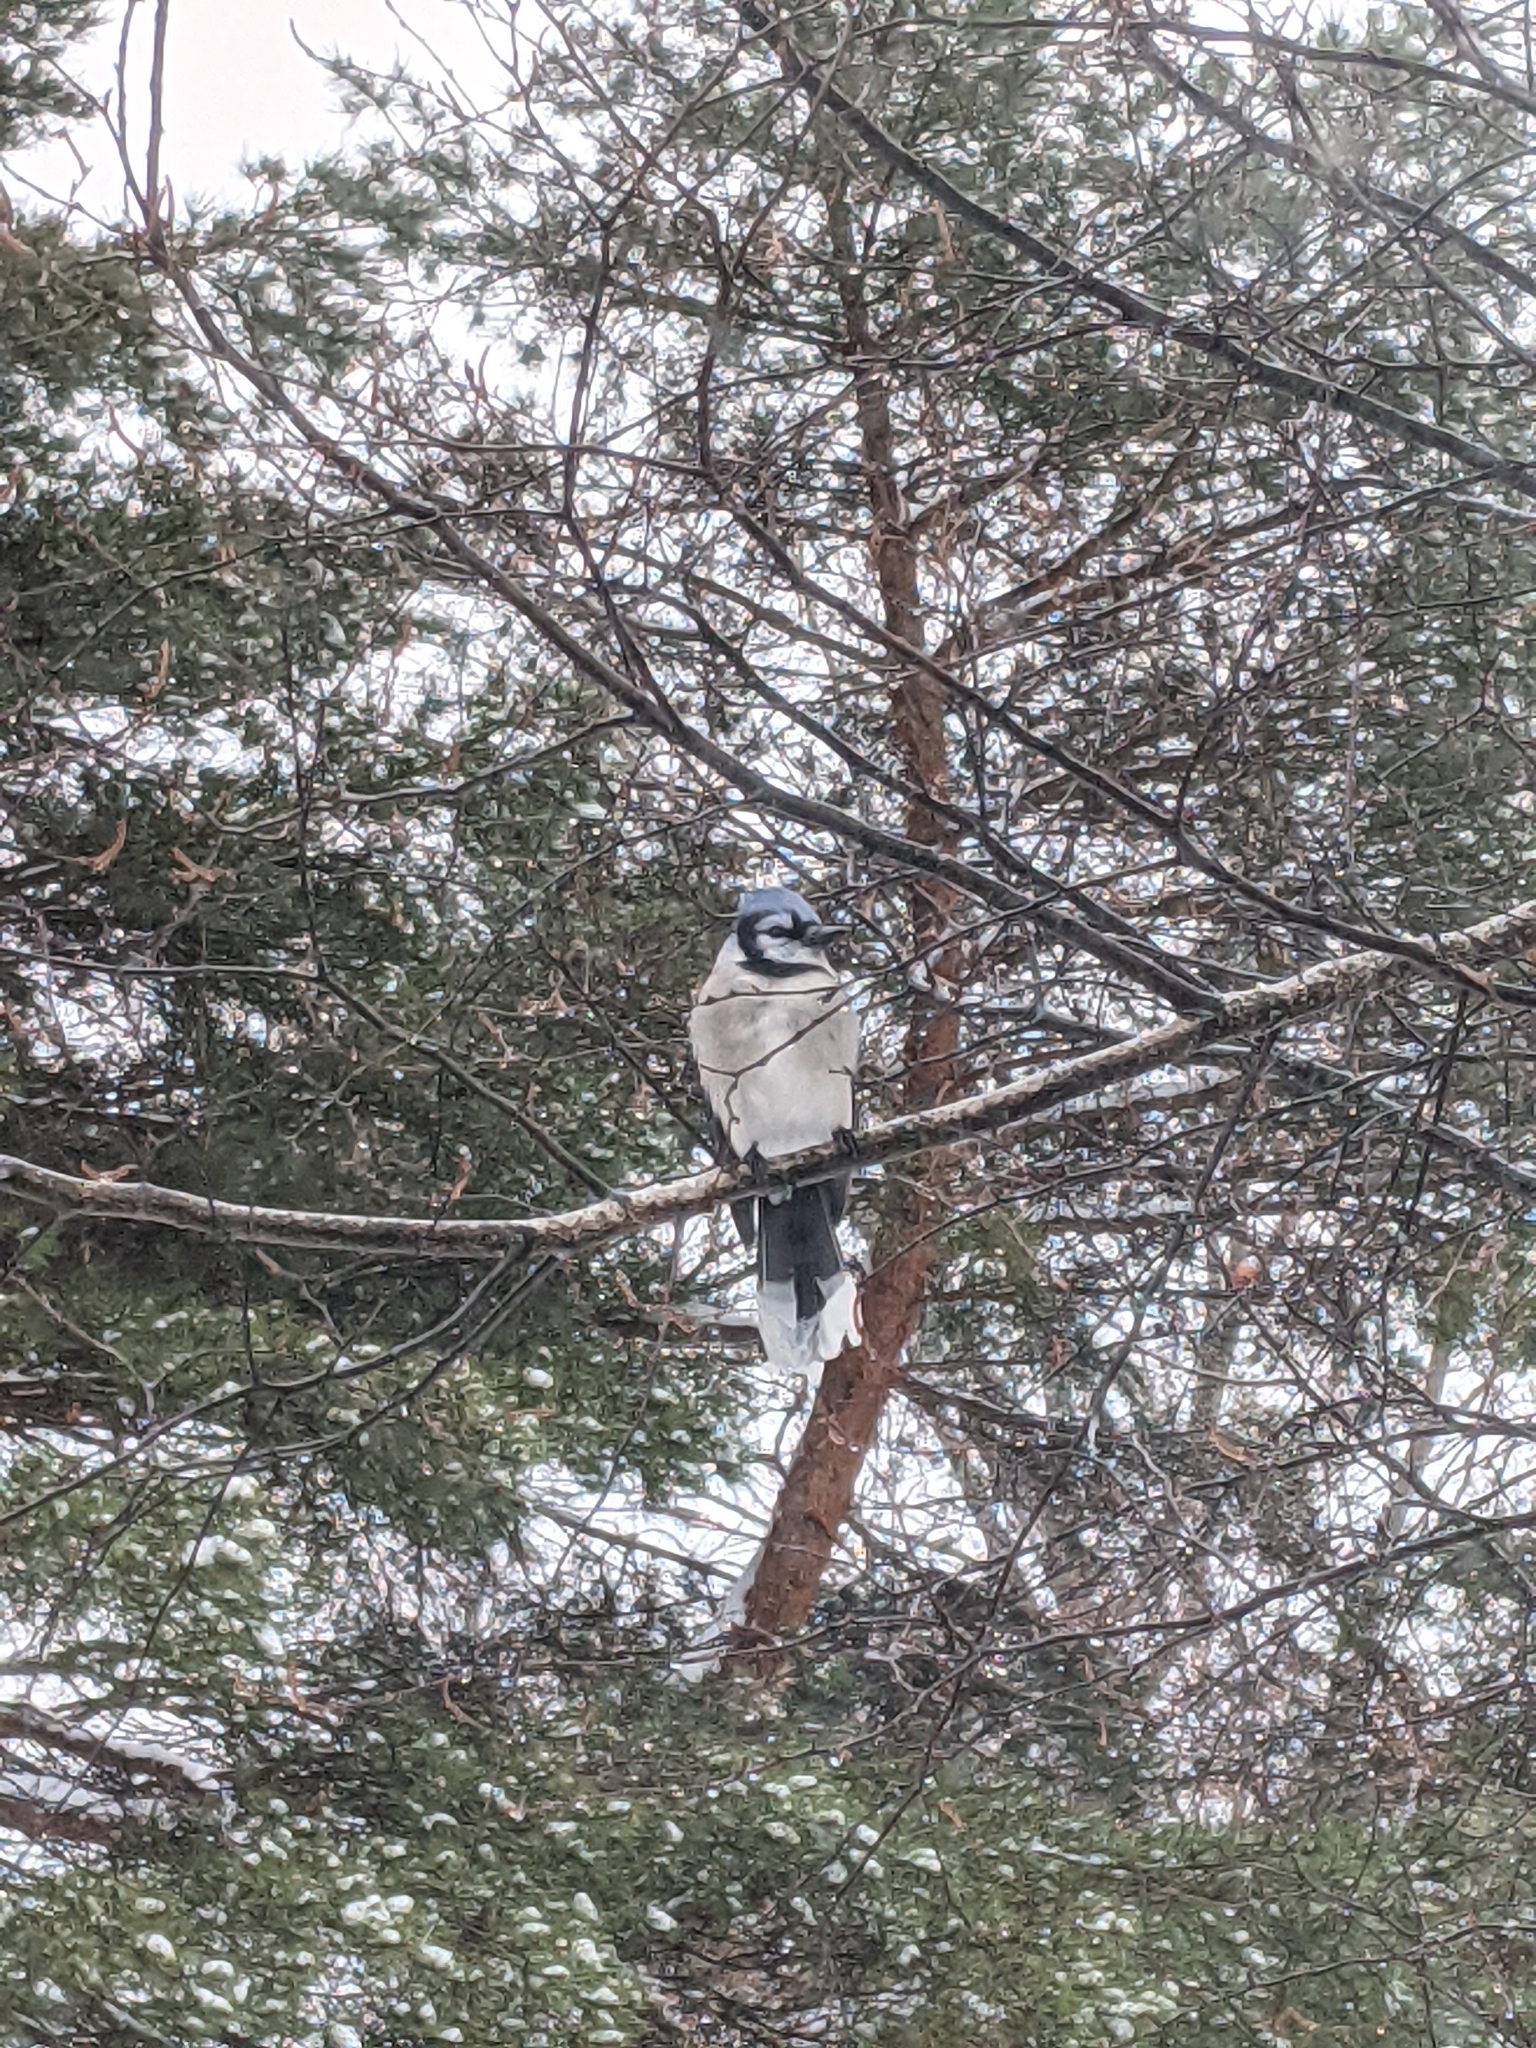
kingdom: Animalia
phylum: Chordata
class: Aves
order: Passeriformes
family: Corvidae
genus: Cyanocitta
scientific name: Cyanocitta cristata
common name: Blue jay
